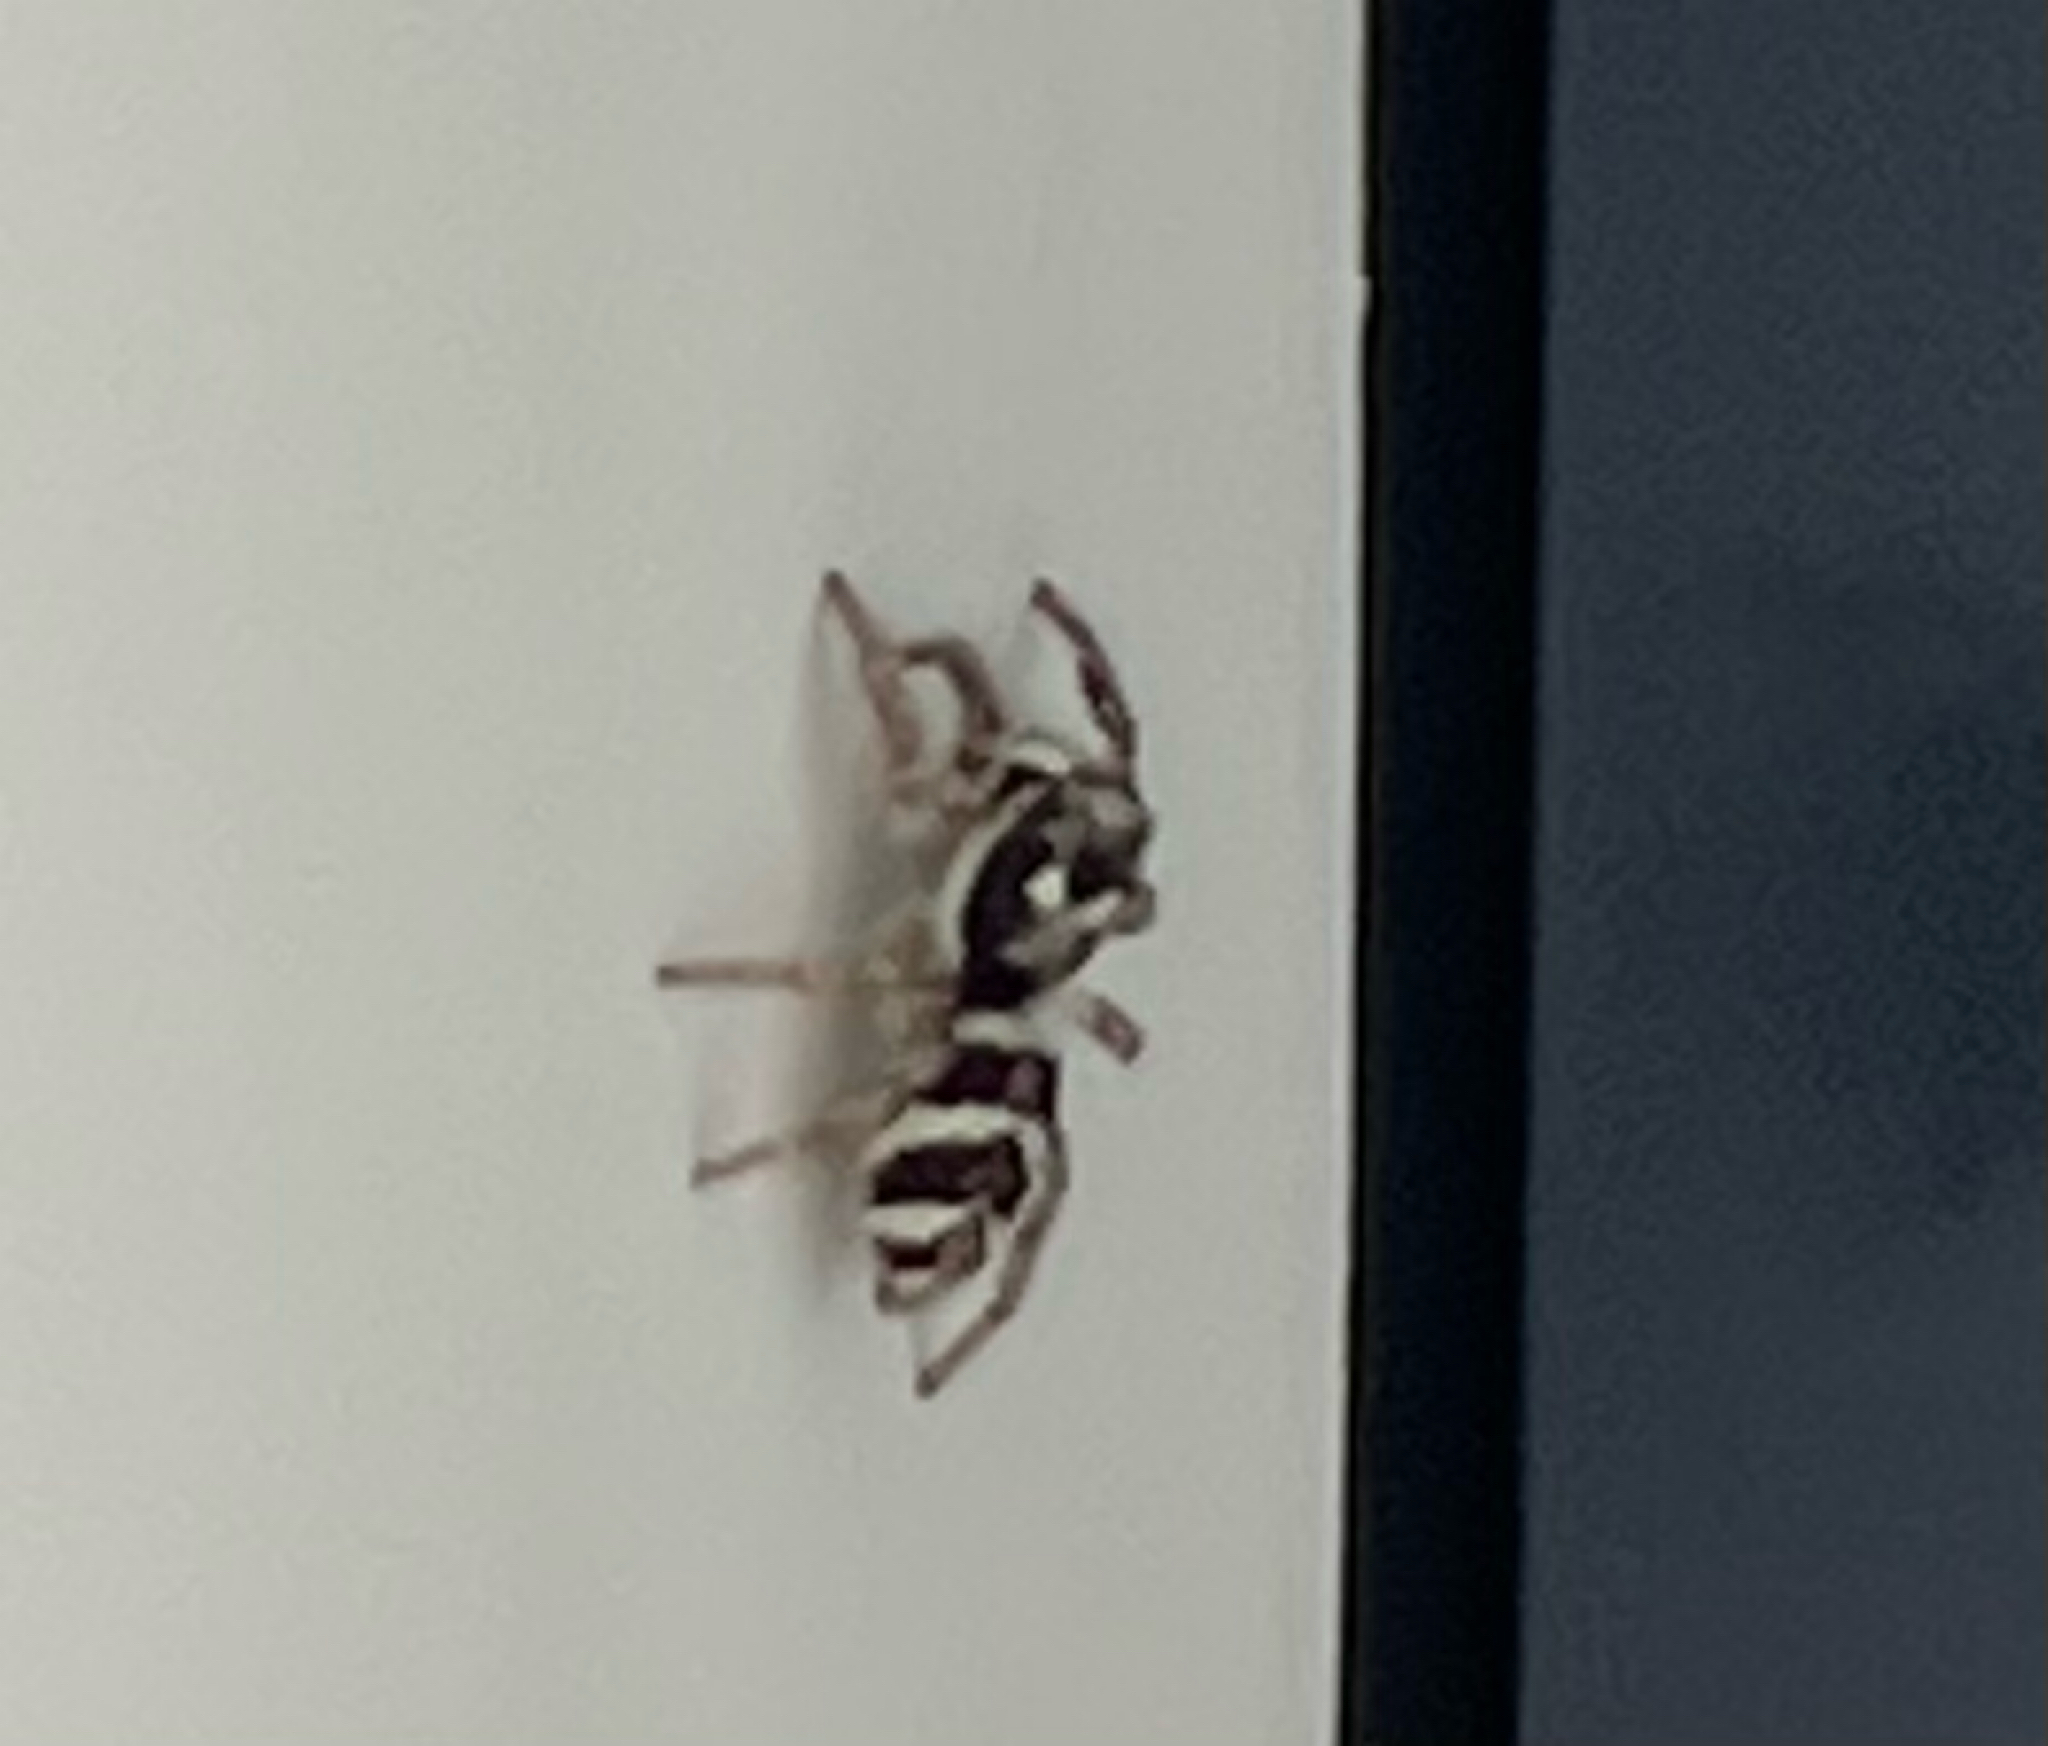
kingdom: Animalia
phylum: Arthropoda
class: Arachnida
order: Araneae
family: Salticidae
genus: Salticus
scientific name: Salticus scenicus
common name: Zebra jumper
